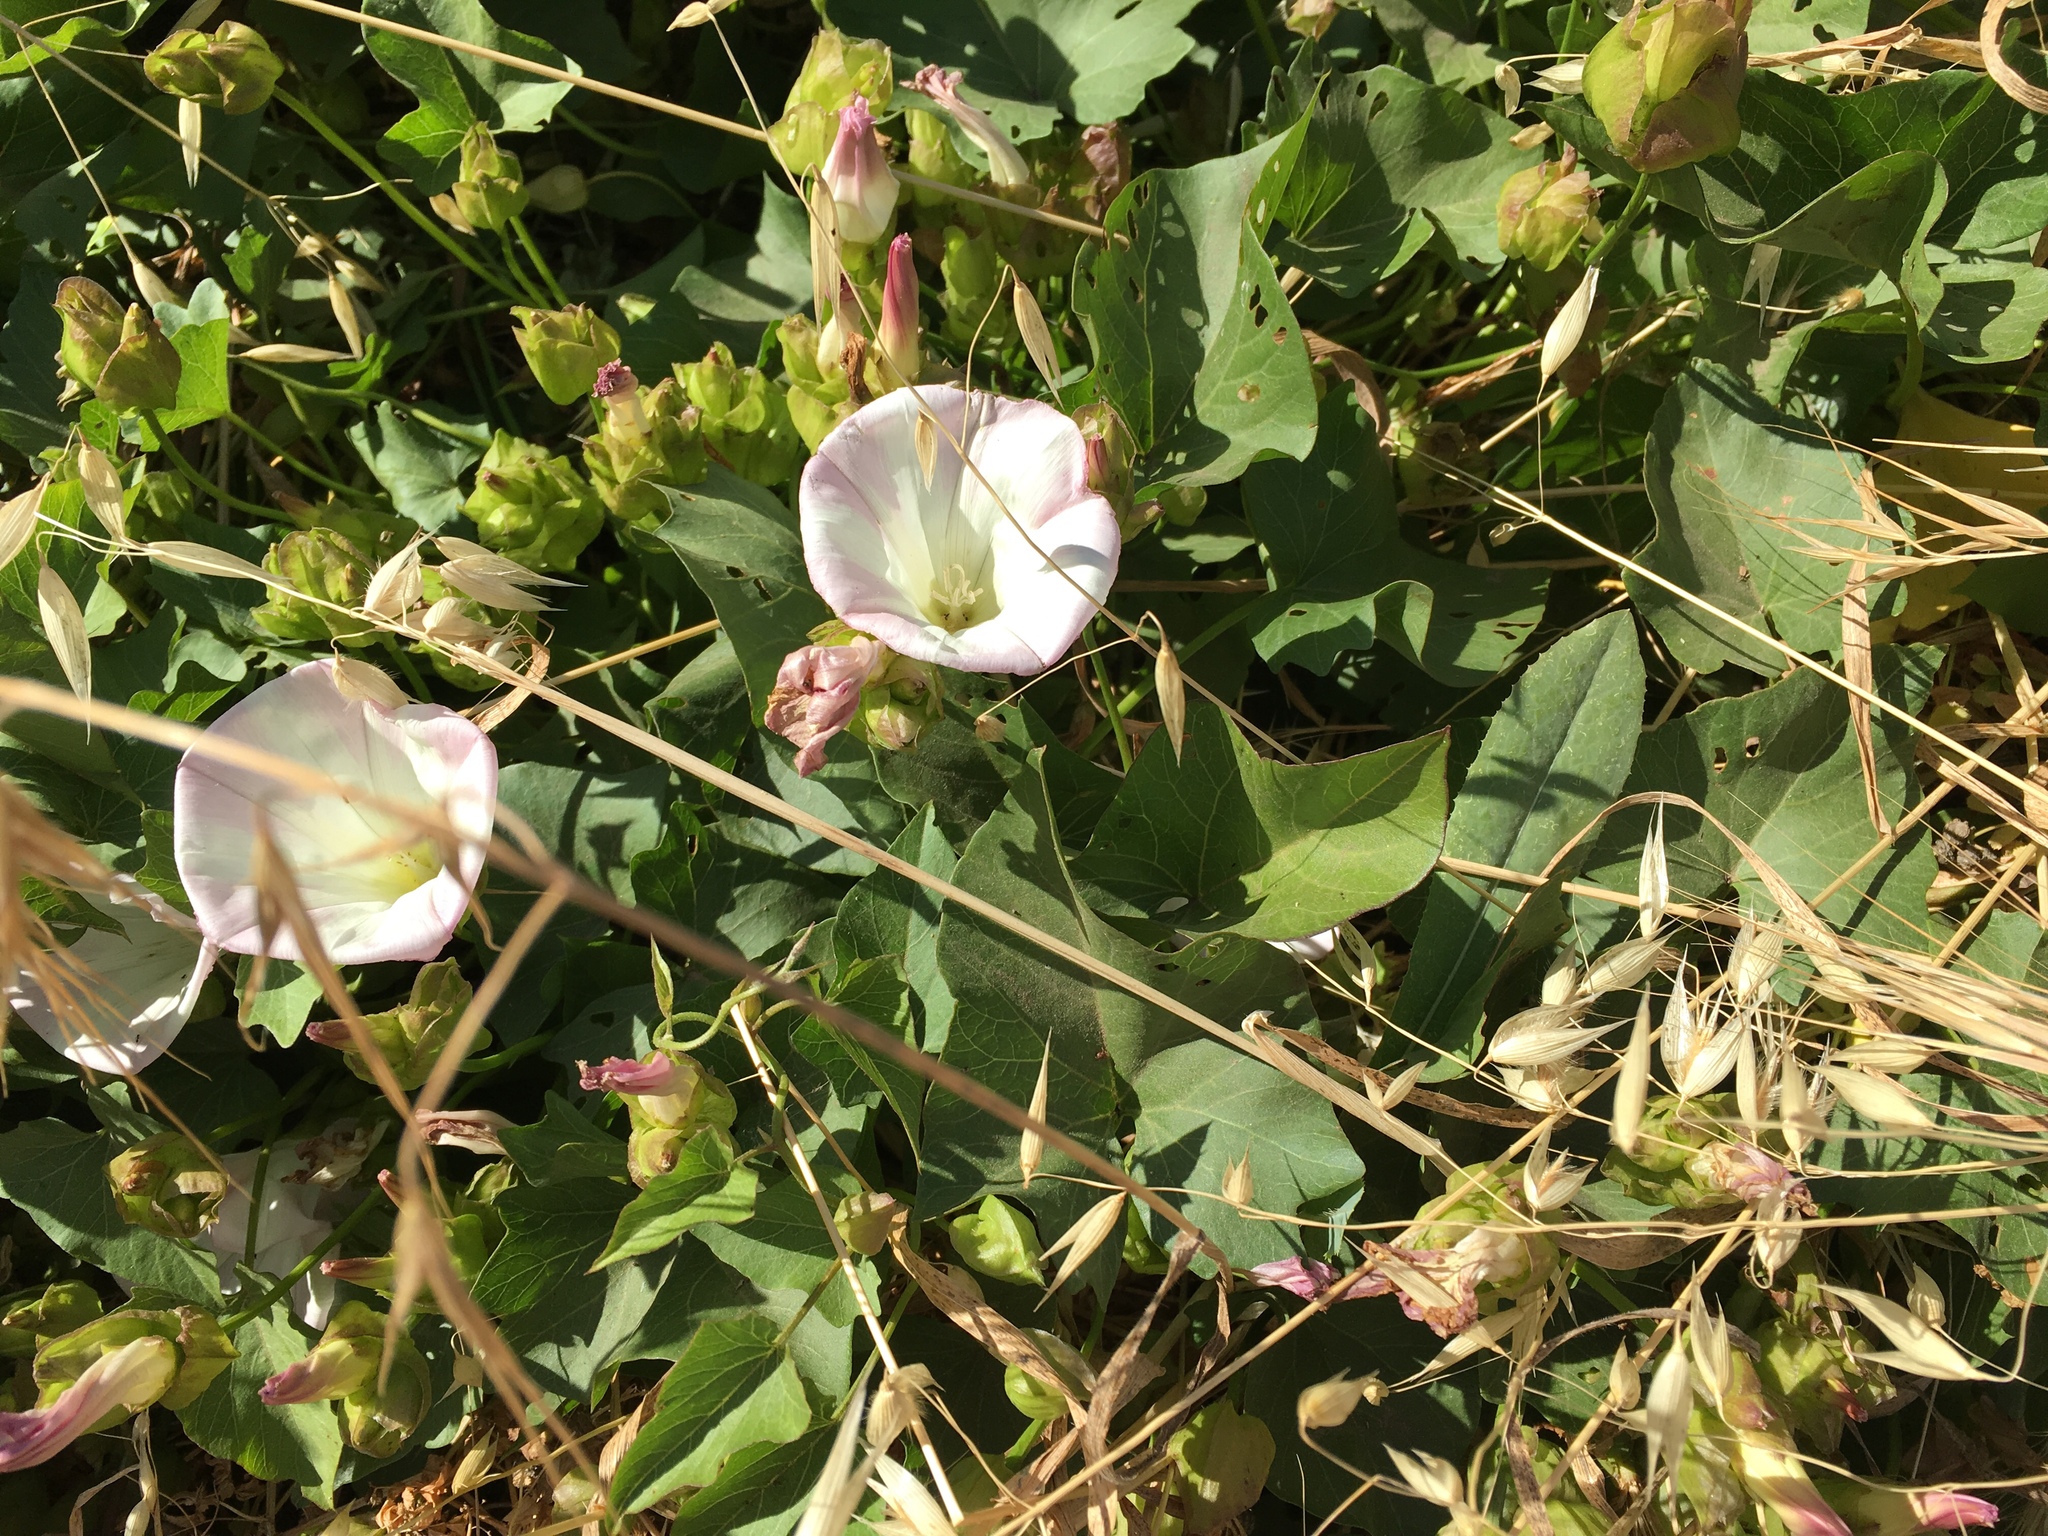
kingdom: Plantae
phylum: Tracheophyta
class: Magnoliopsida
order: Solanales
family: Convolvulaceae
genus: Calystegia
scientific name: Calystegia macrostegia
